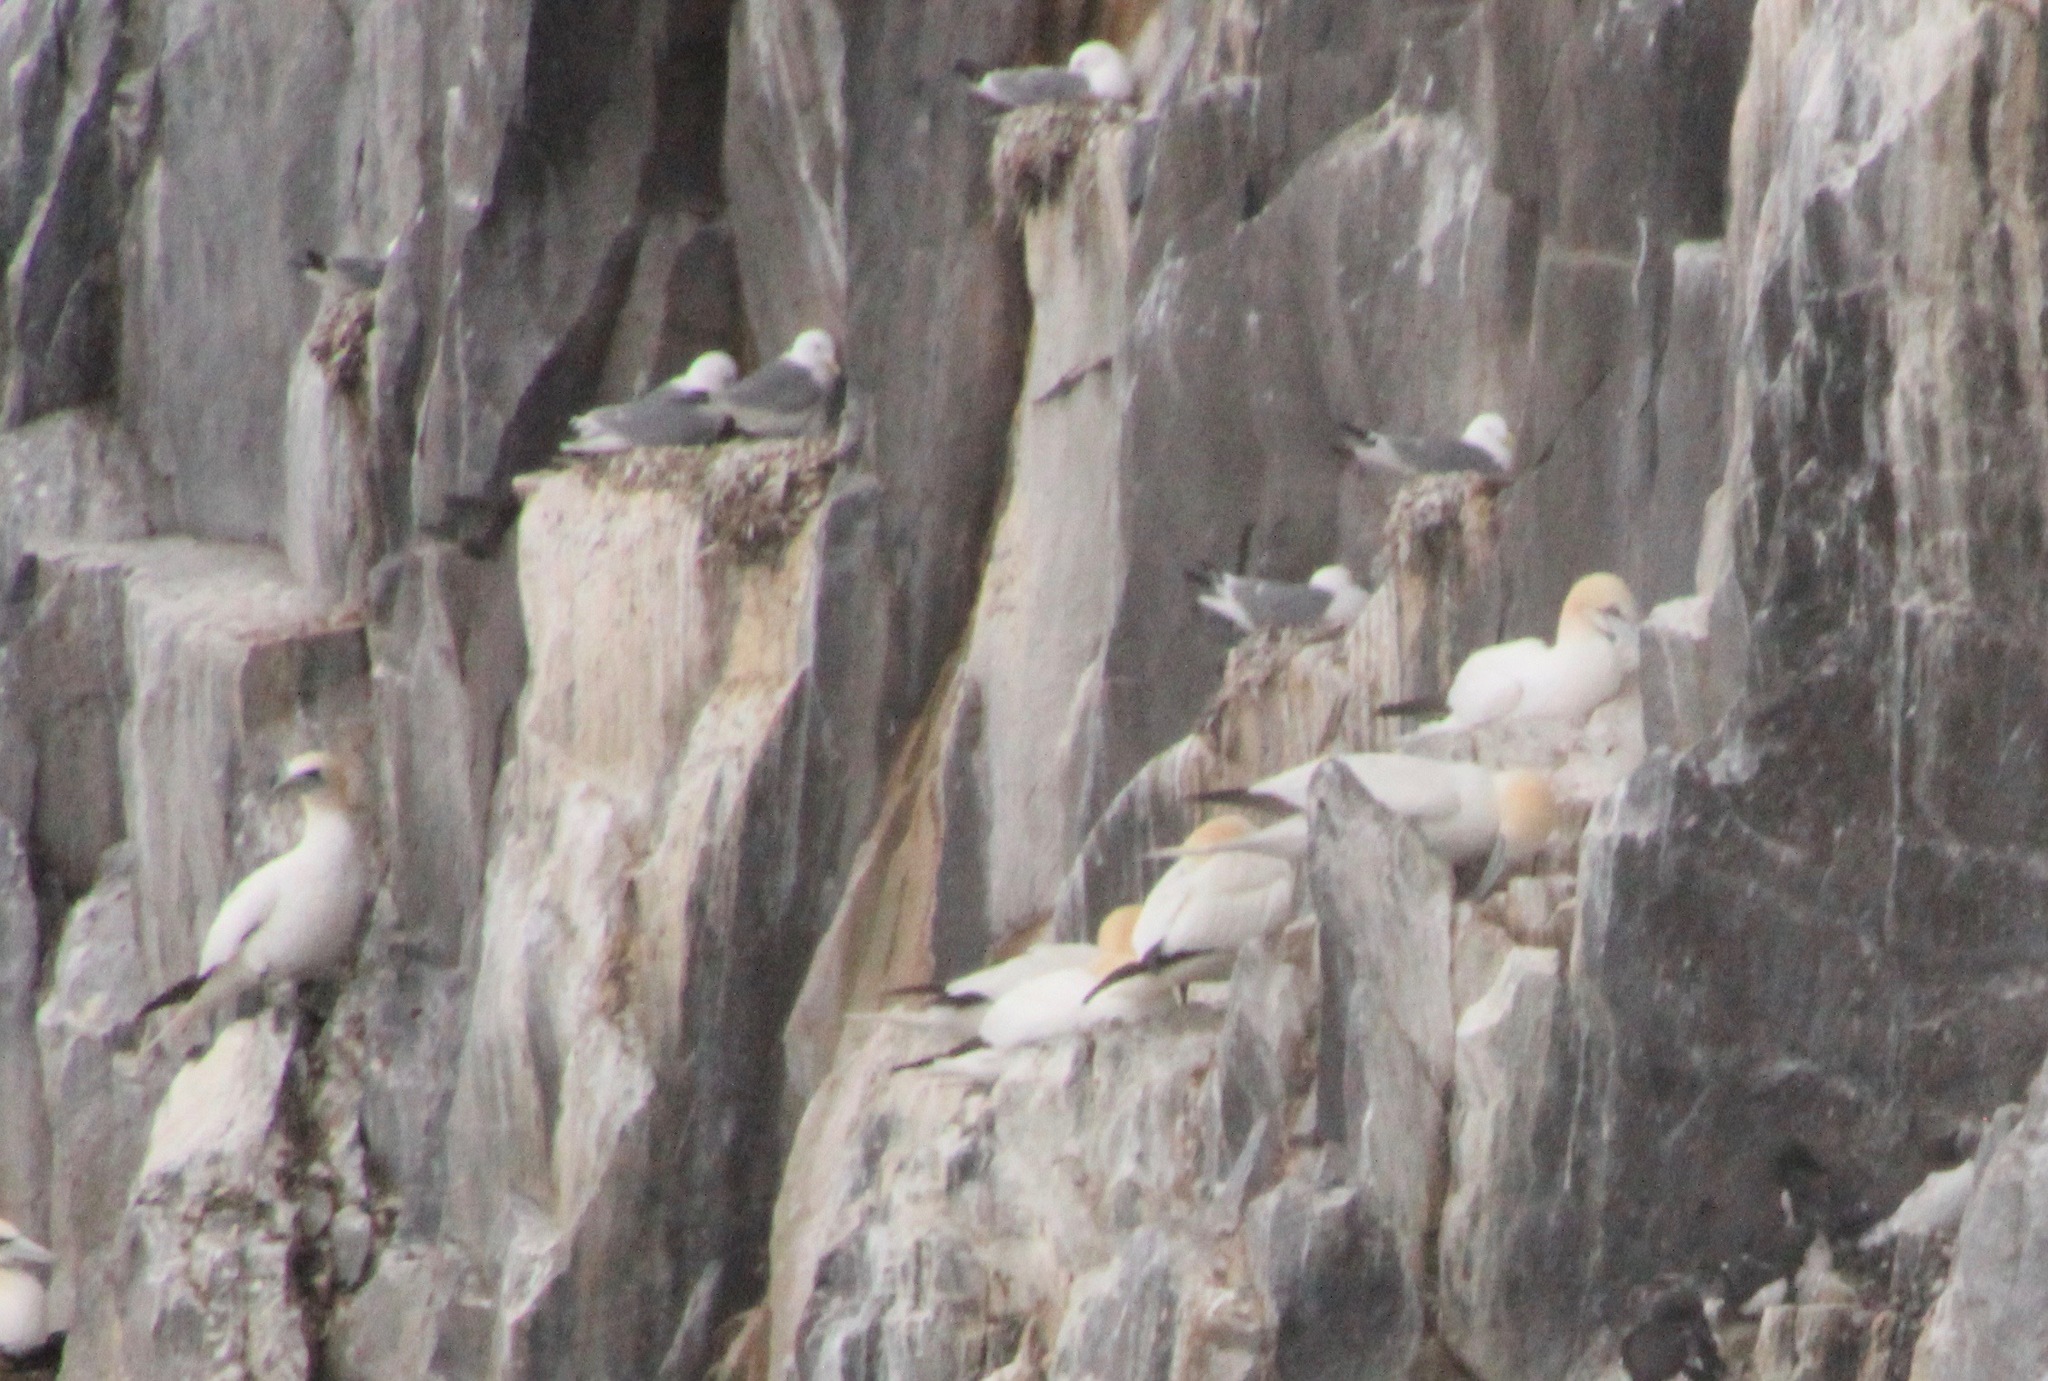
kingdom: Animalia
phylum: Chordata
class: Aves
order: Charadriiformes
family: Laridae
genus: Rissa
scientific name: Rissa tridactyla
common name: Black-legged kittiwake
